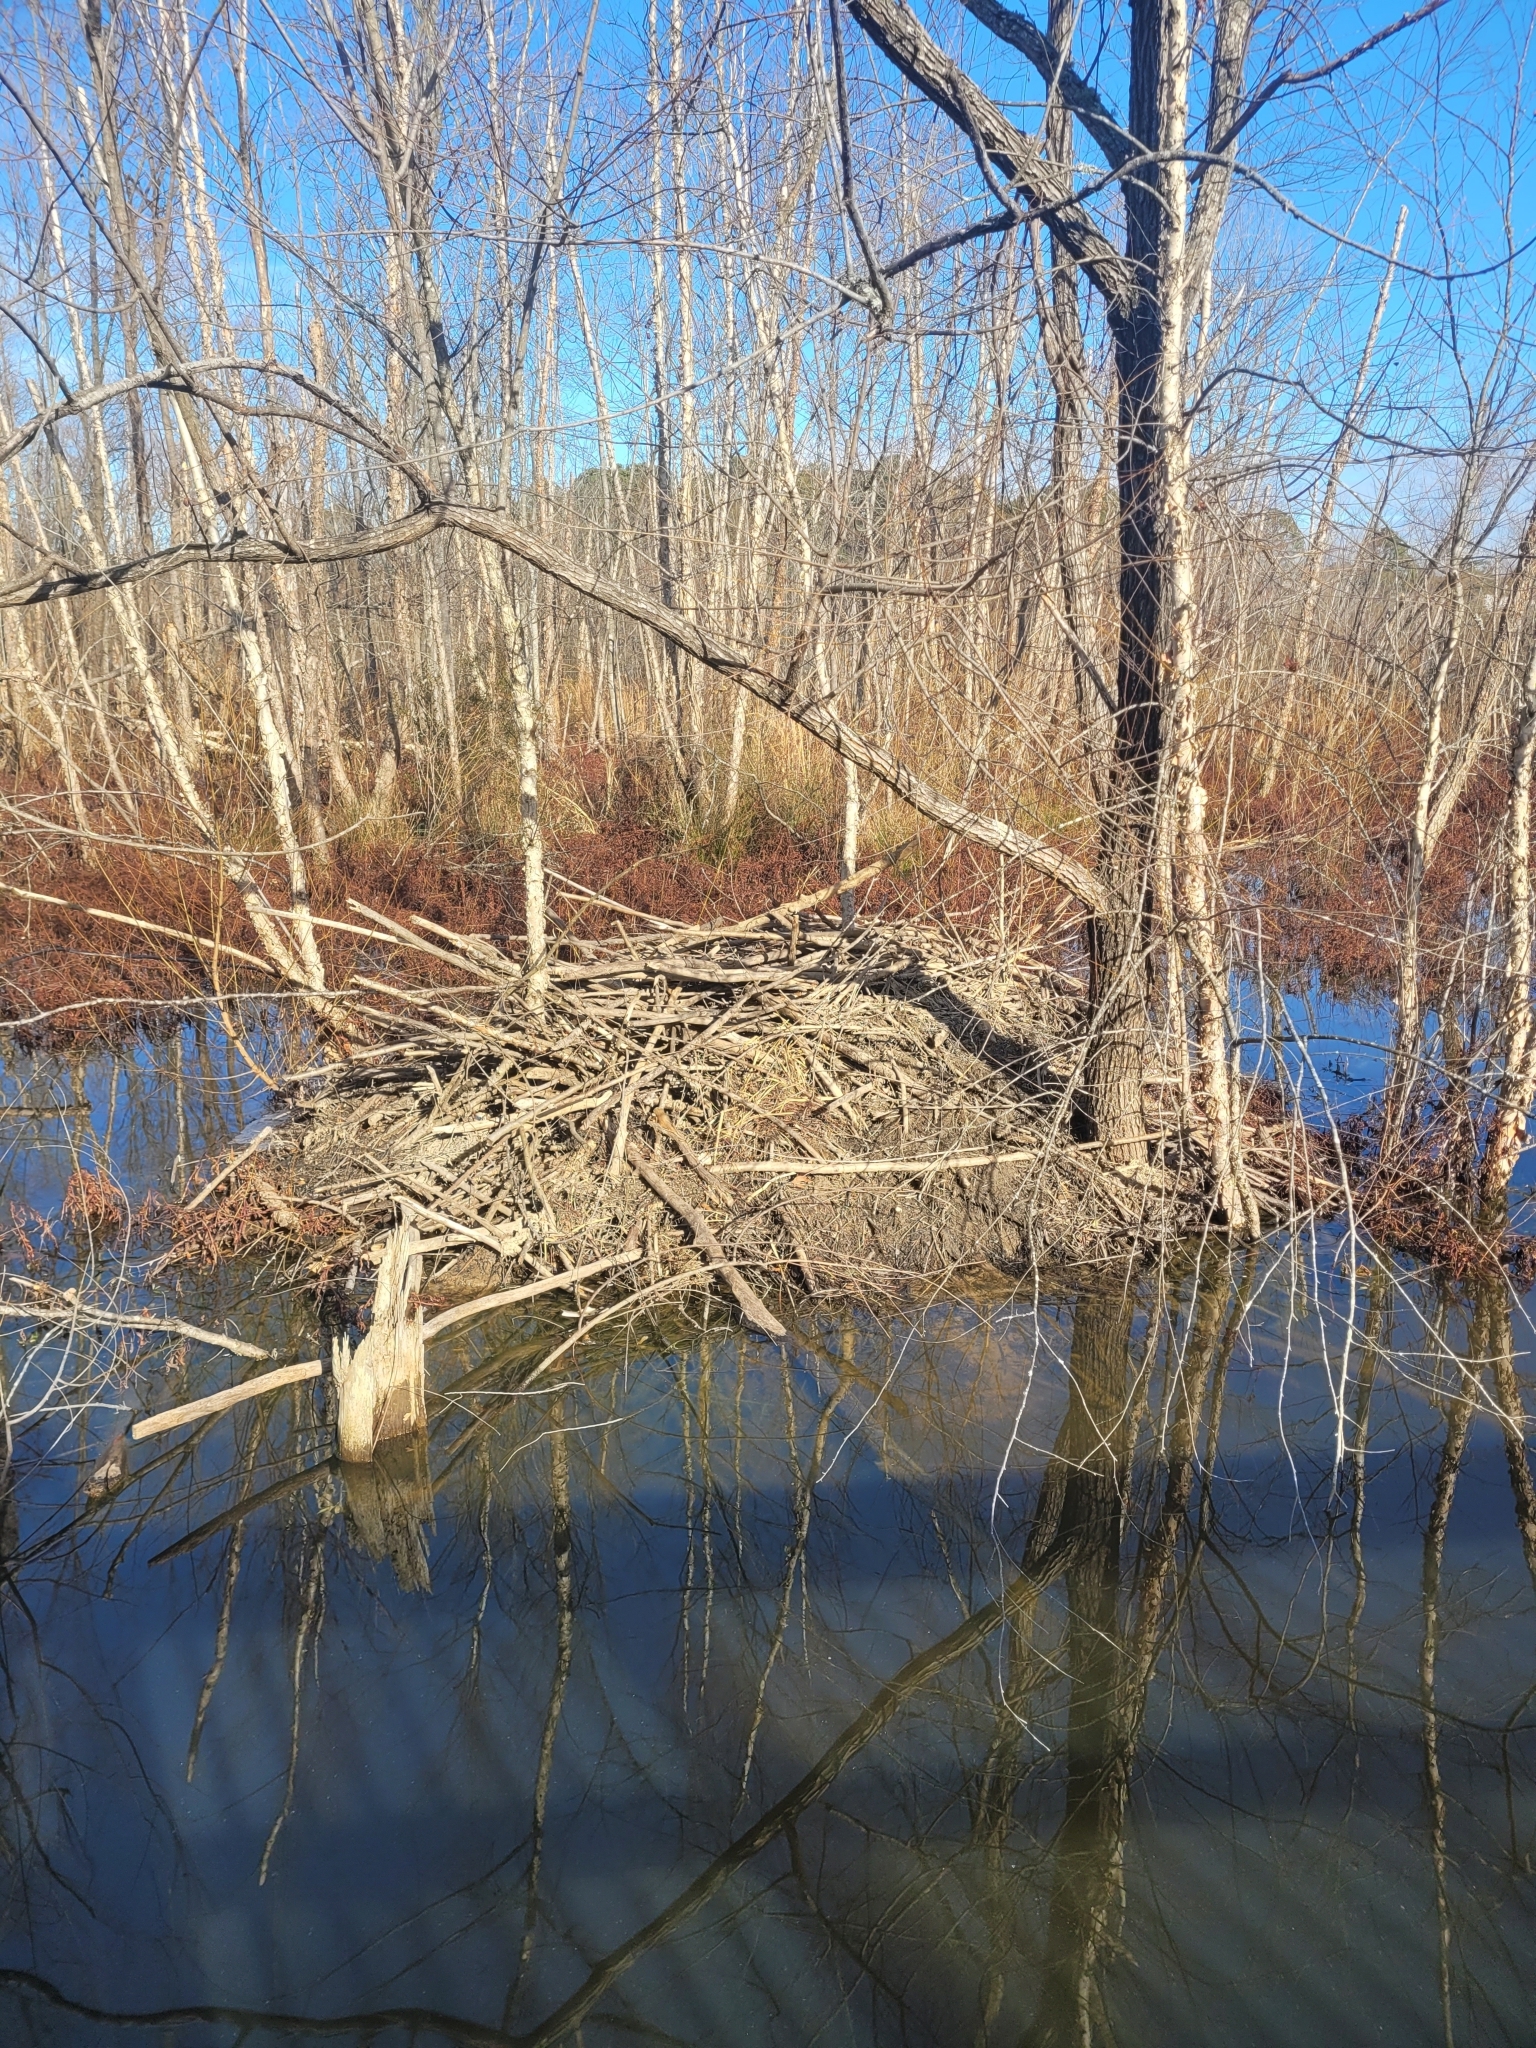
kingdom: Animalia
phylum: Chordata
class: Mammalia
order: Rodentia
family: Castoridae
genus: Castor
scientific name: Castor canadensis
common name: American beaver
